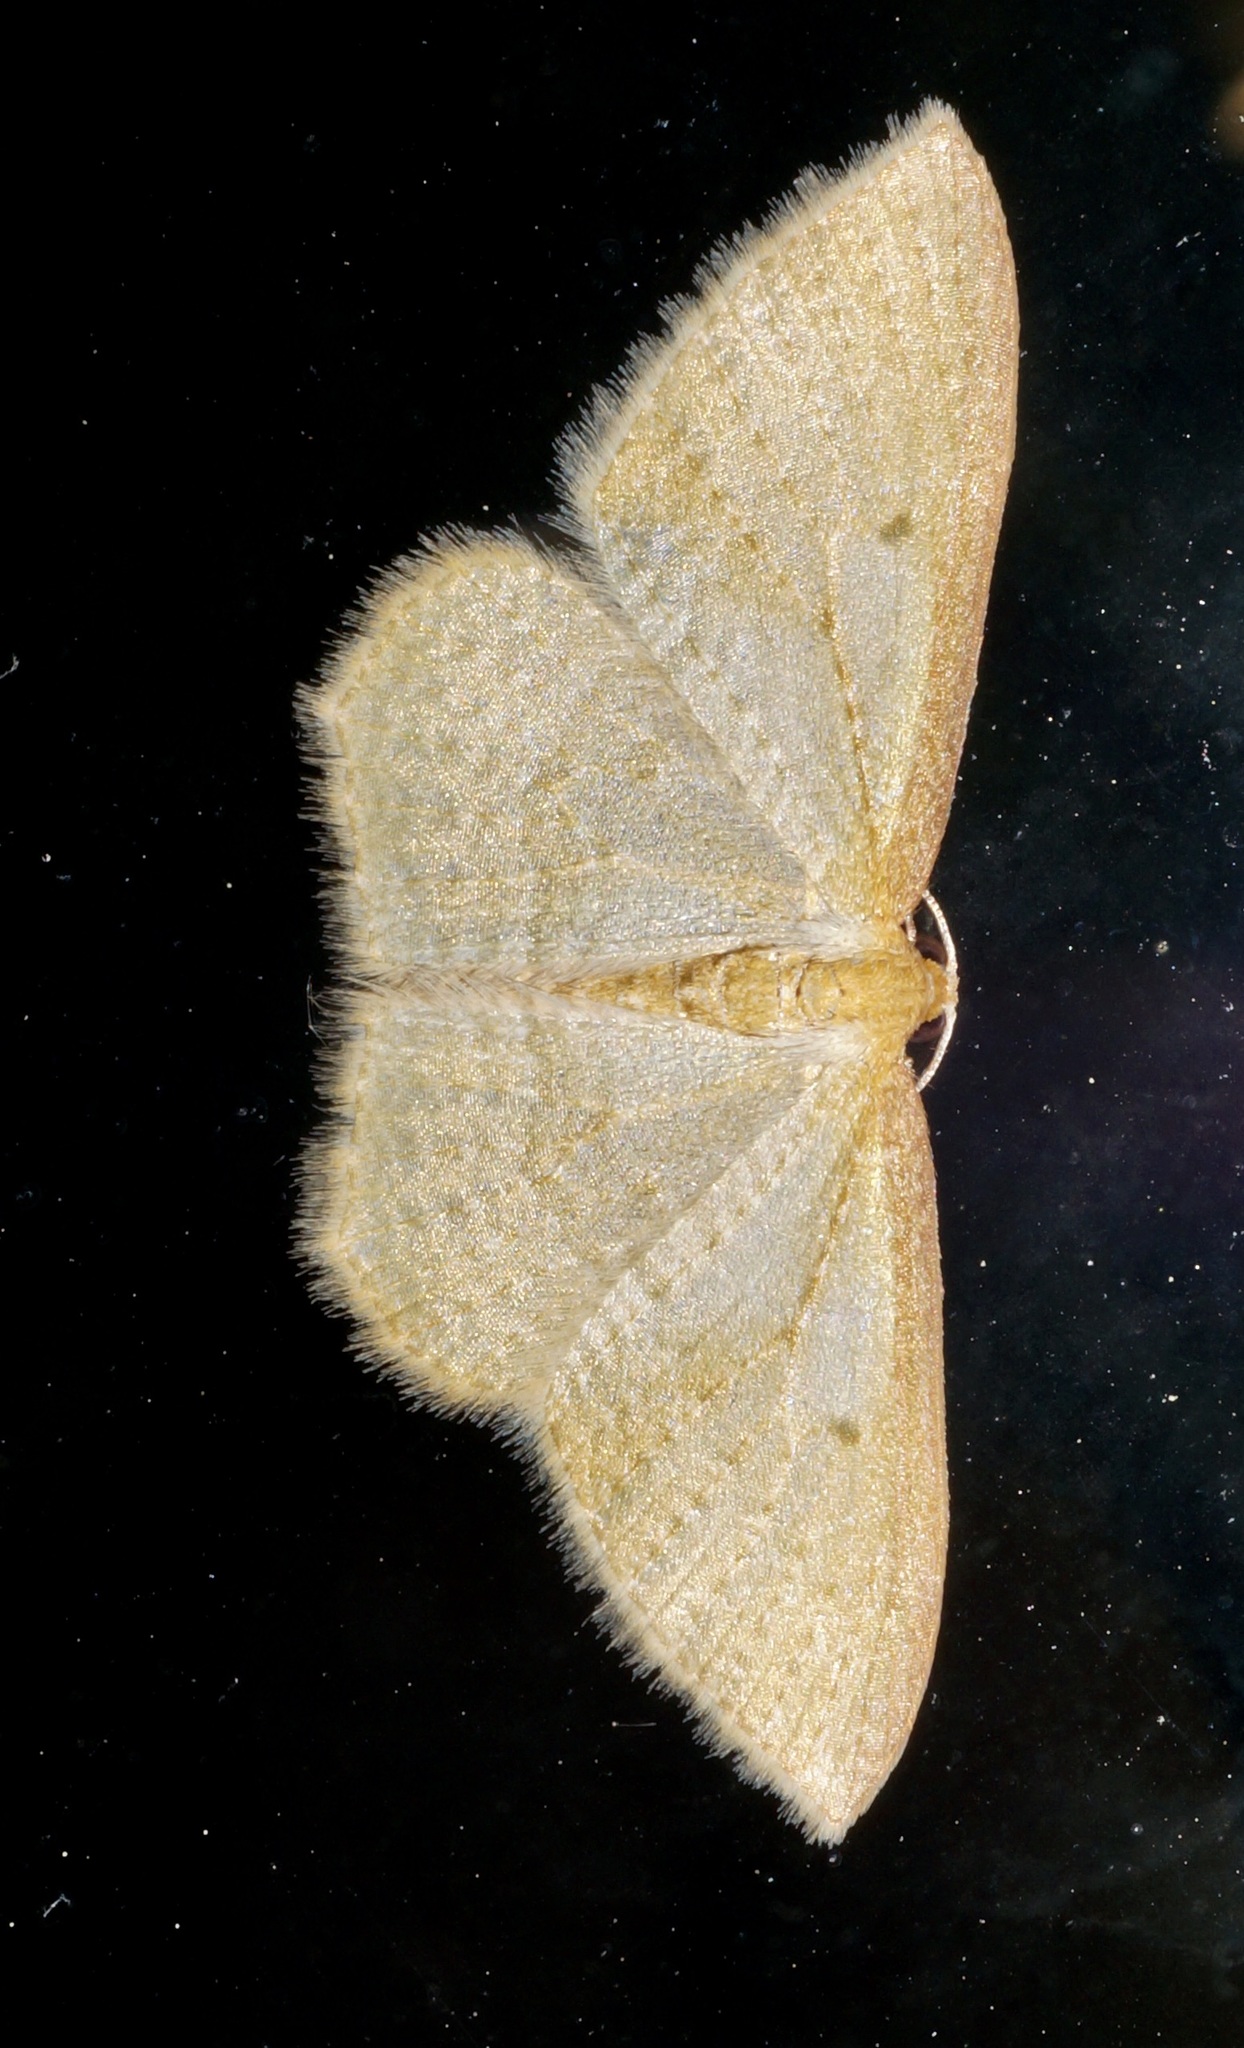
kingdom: Animalia
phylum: Arthropoda
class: Insecta
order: Lepidoptera
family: Geometridae
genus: Poecilasthena
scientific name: Poecilasthena pulchraria
